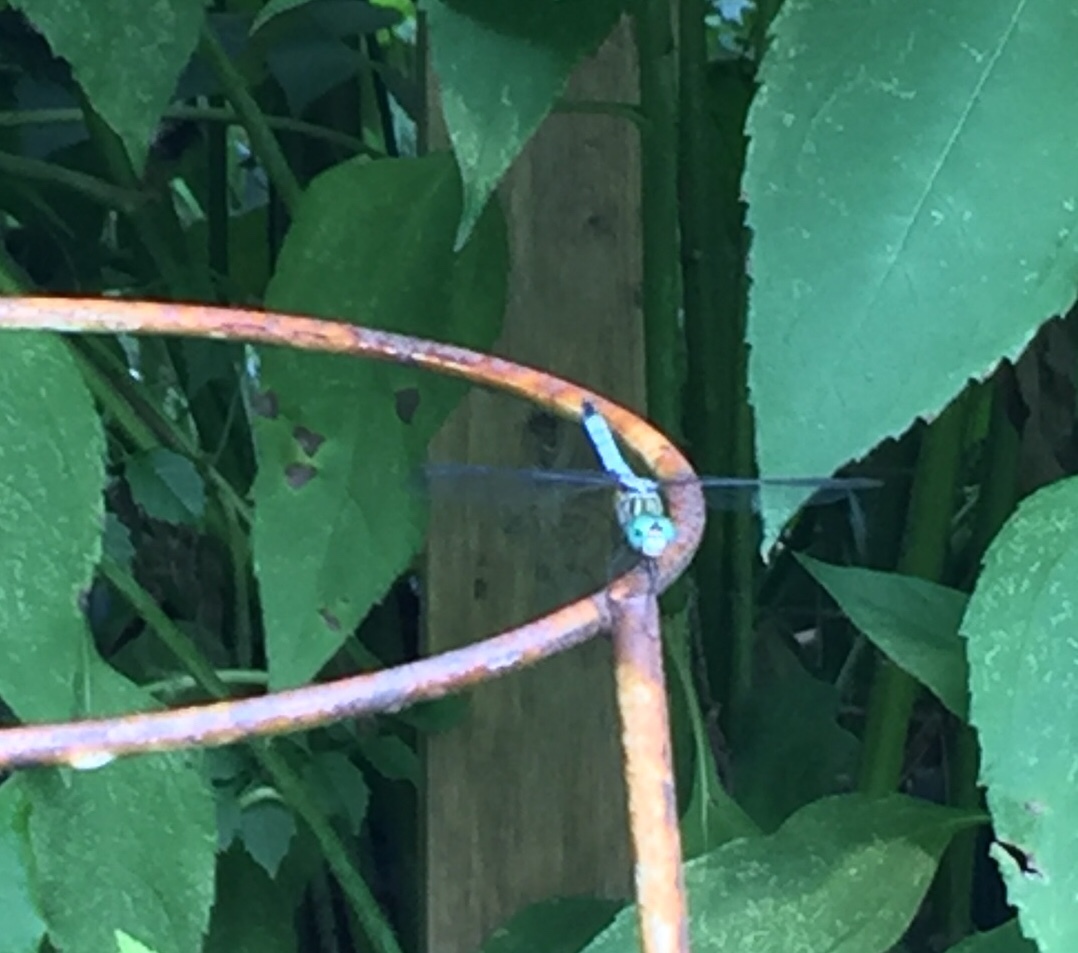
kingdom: Animalia
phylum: Arthropoda
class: Insecta
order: Odonata
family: Libellulidae
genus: Pachydiplax
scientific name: Pachydiplax longipennis
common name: Blue dasher
